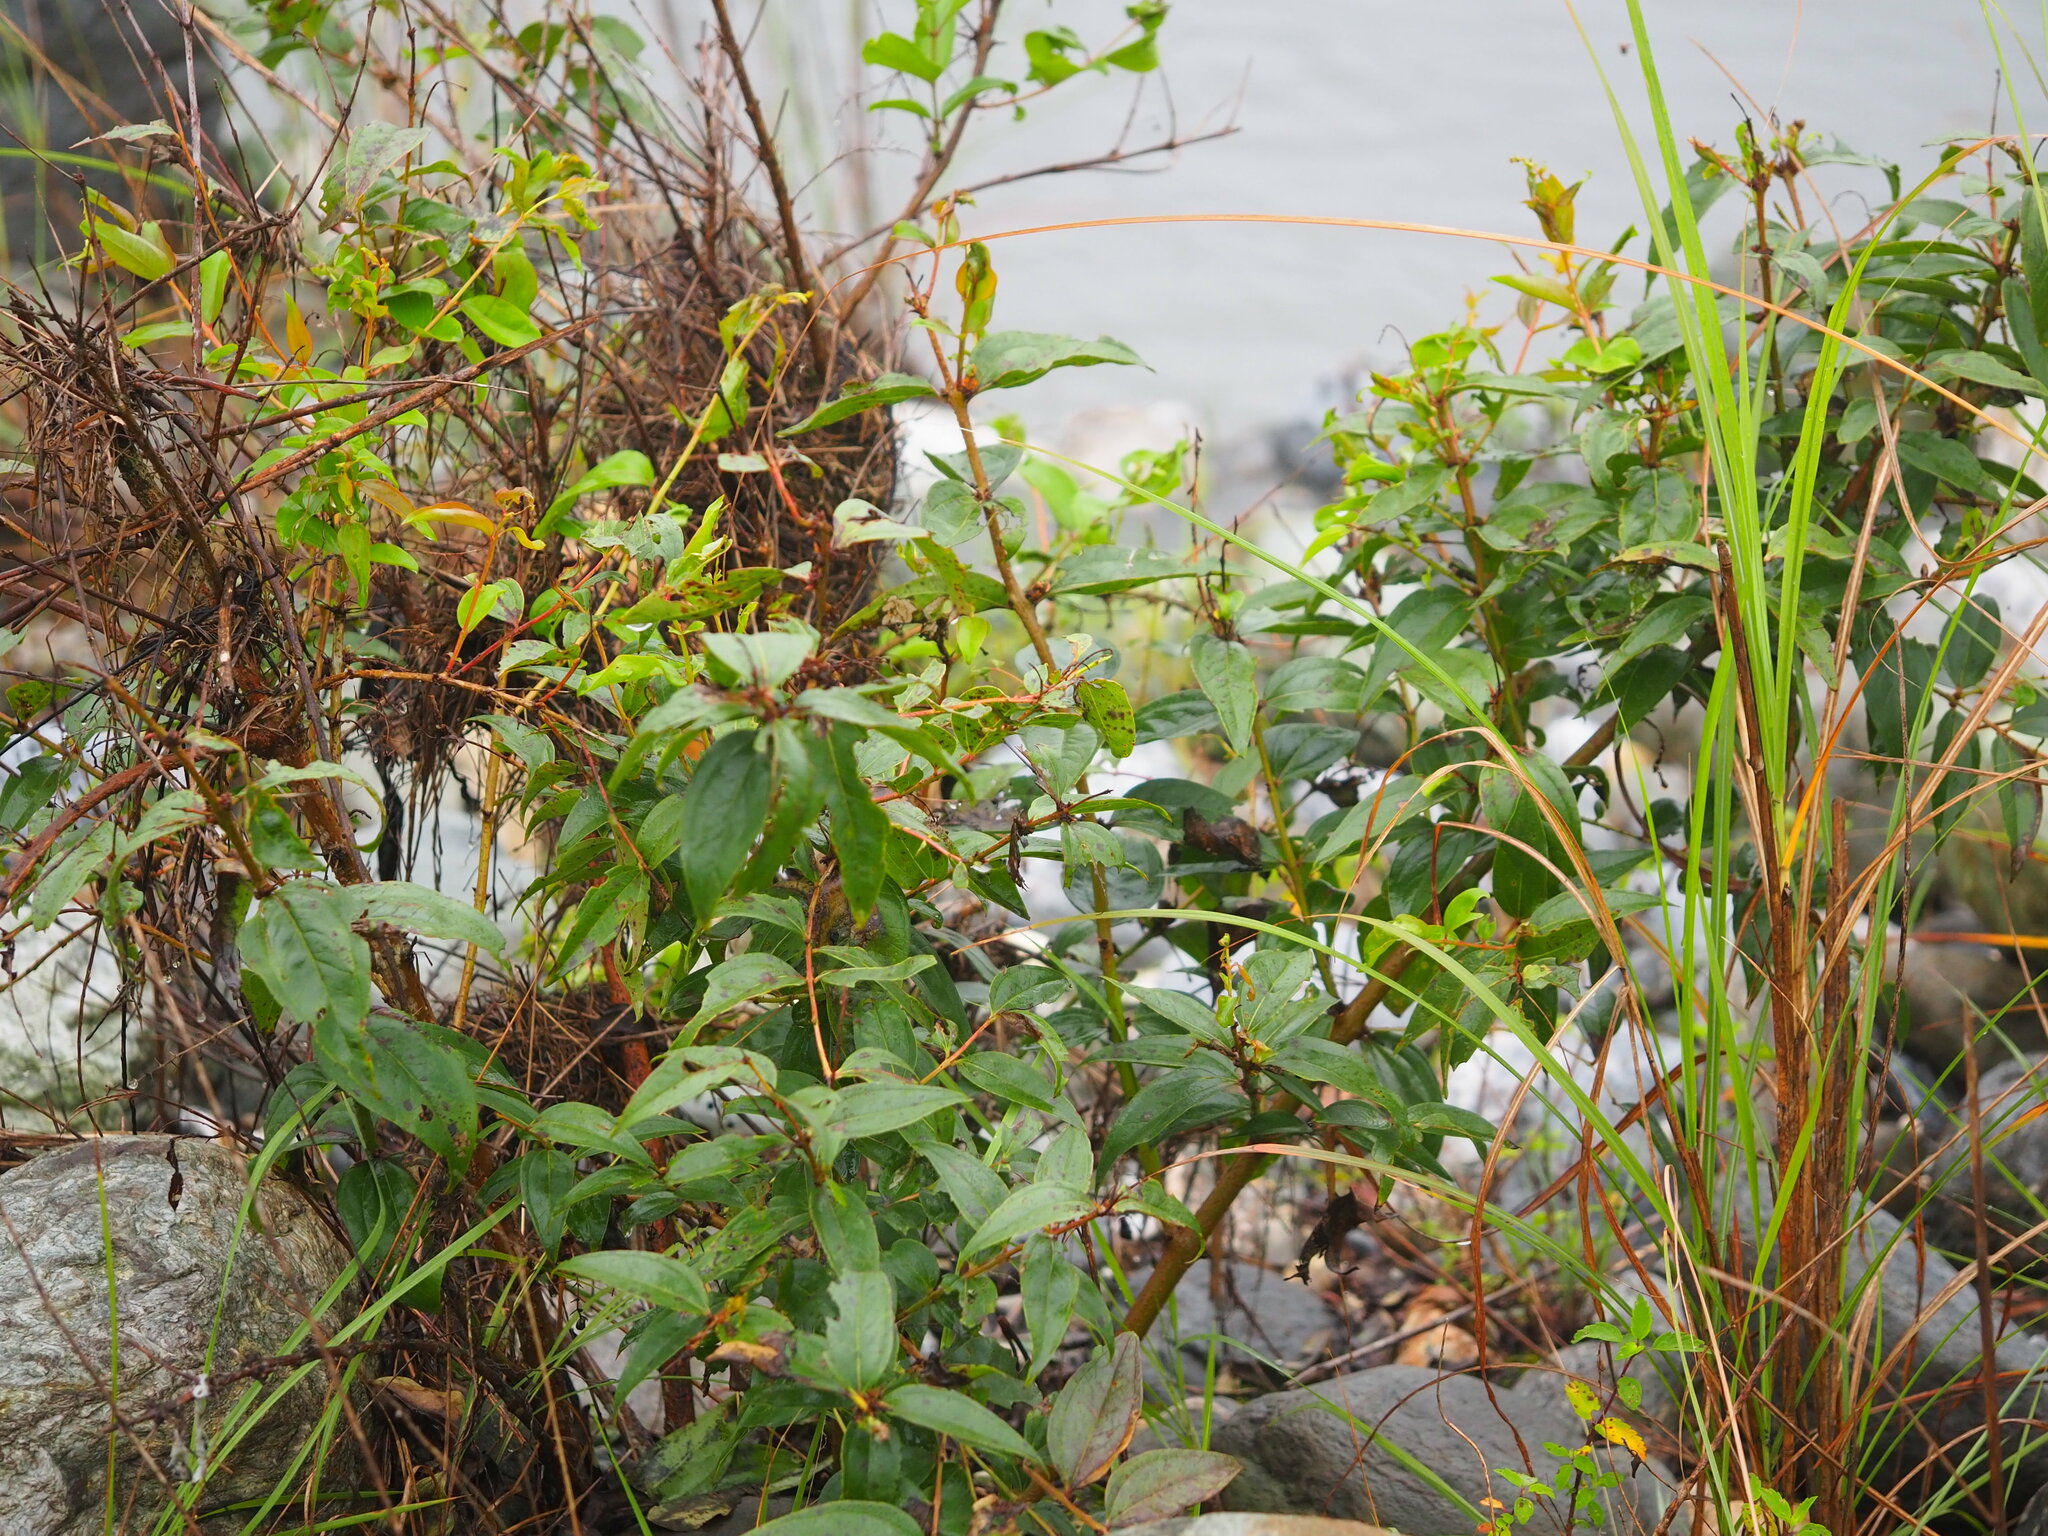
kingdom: Plantae
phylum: Tracheophyta
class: Magnoliopsida
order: Cucurbitales
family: Coriariaceae
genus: Coriaria
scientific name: Coriaria japonica
